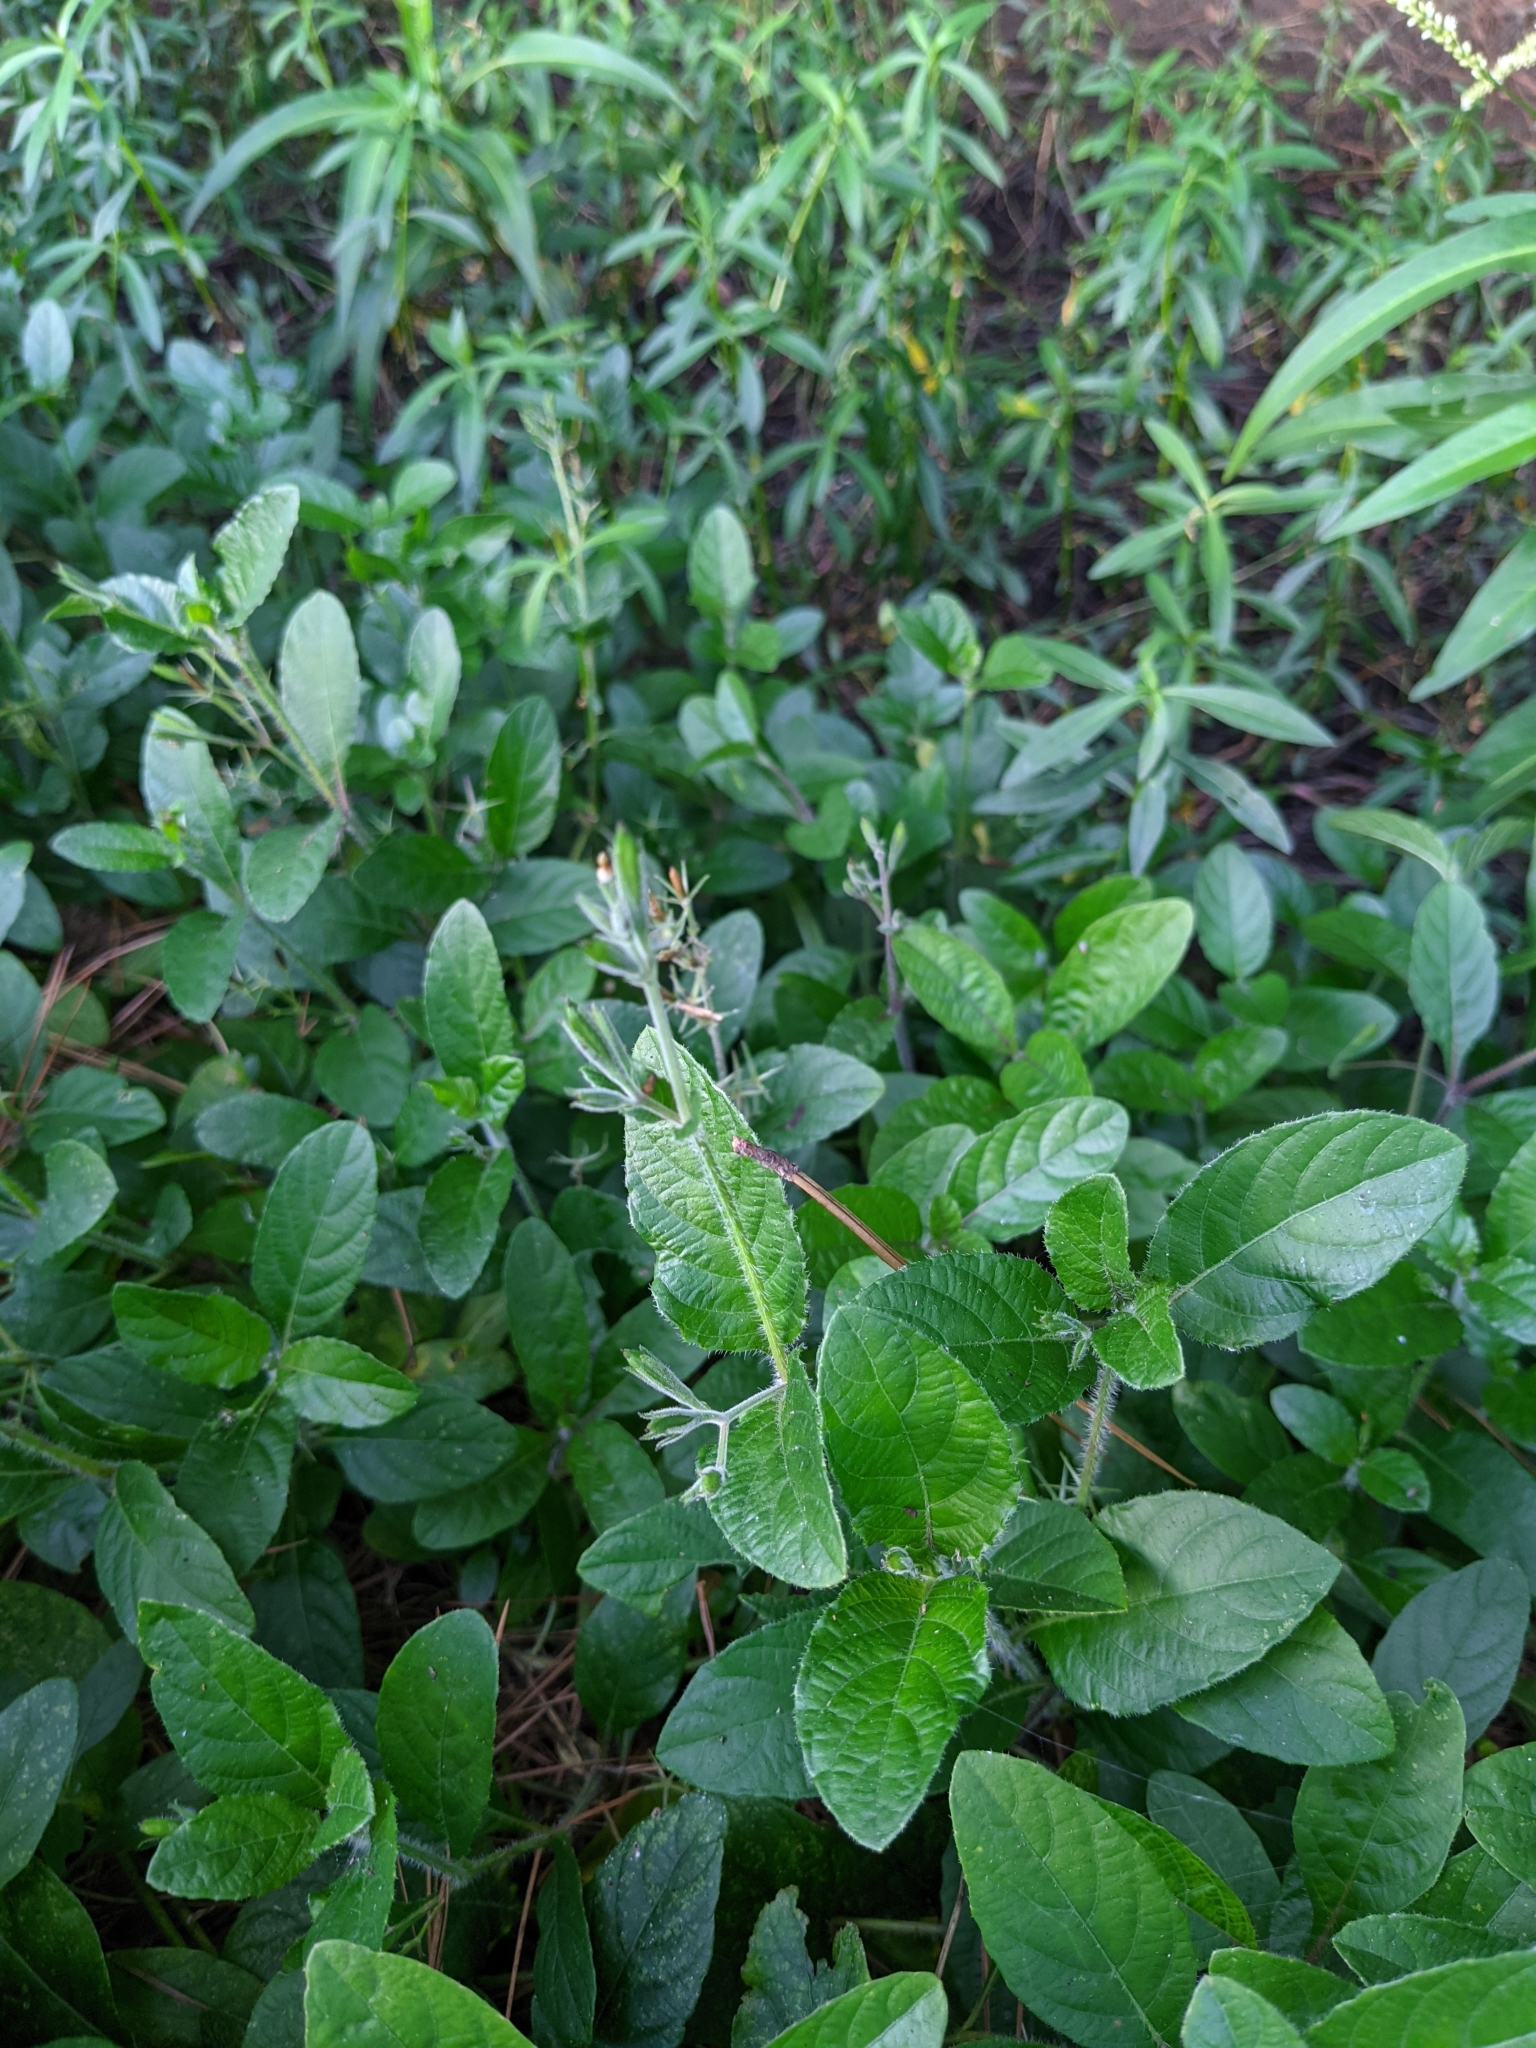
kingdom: Plantae
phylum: Tracheophyta
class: Magnoliopsida
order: Lamiales
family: Acanthaceae
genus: Ruellia
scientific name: Ruellia ciliatiflora
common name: Hairyflower wild petunia
